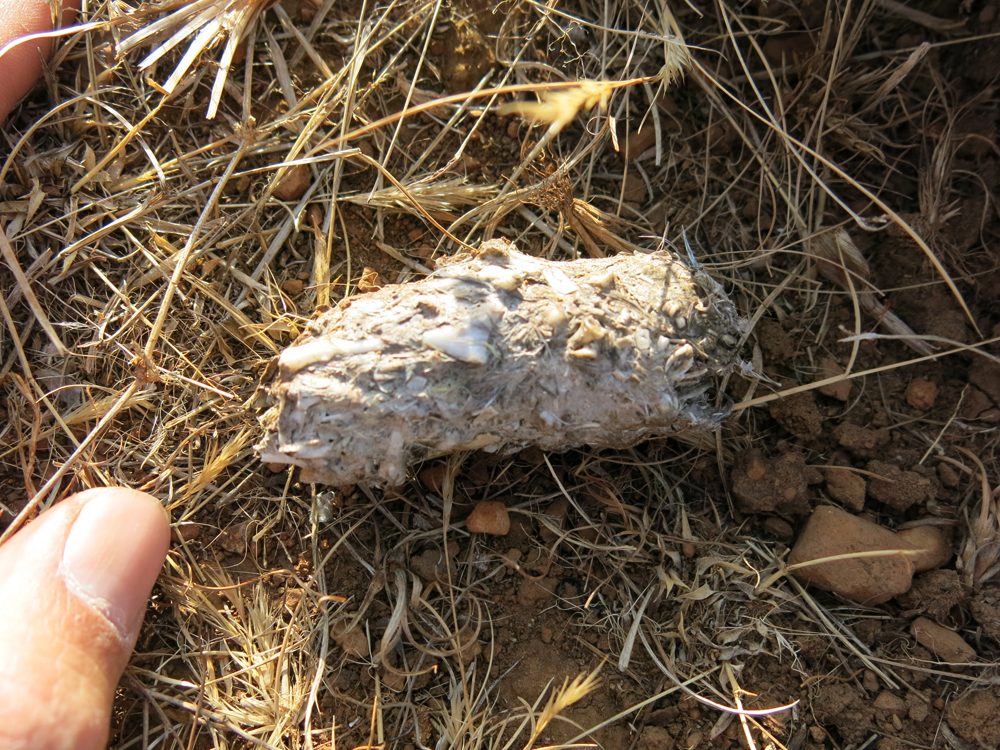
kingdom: Animalia
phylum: Chordata
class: Aves
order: Strigiformes
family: Strigidae
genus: Bubo
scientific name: Bubo africanus
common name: Spotted eagle-owl
